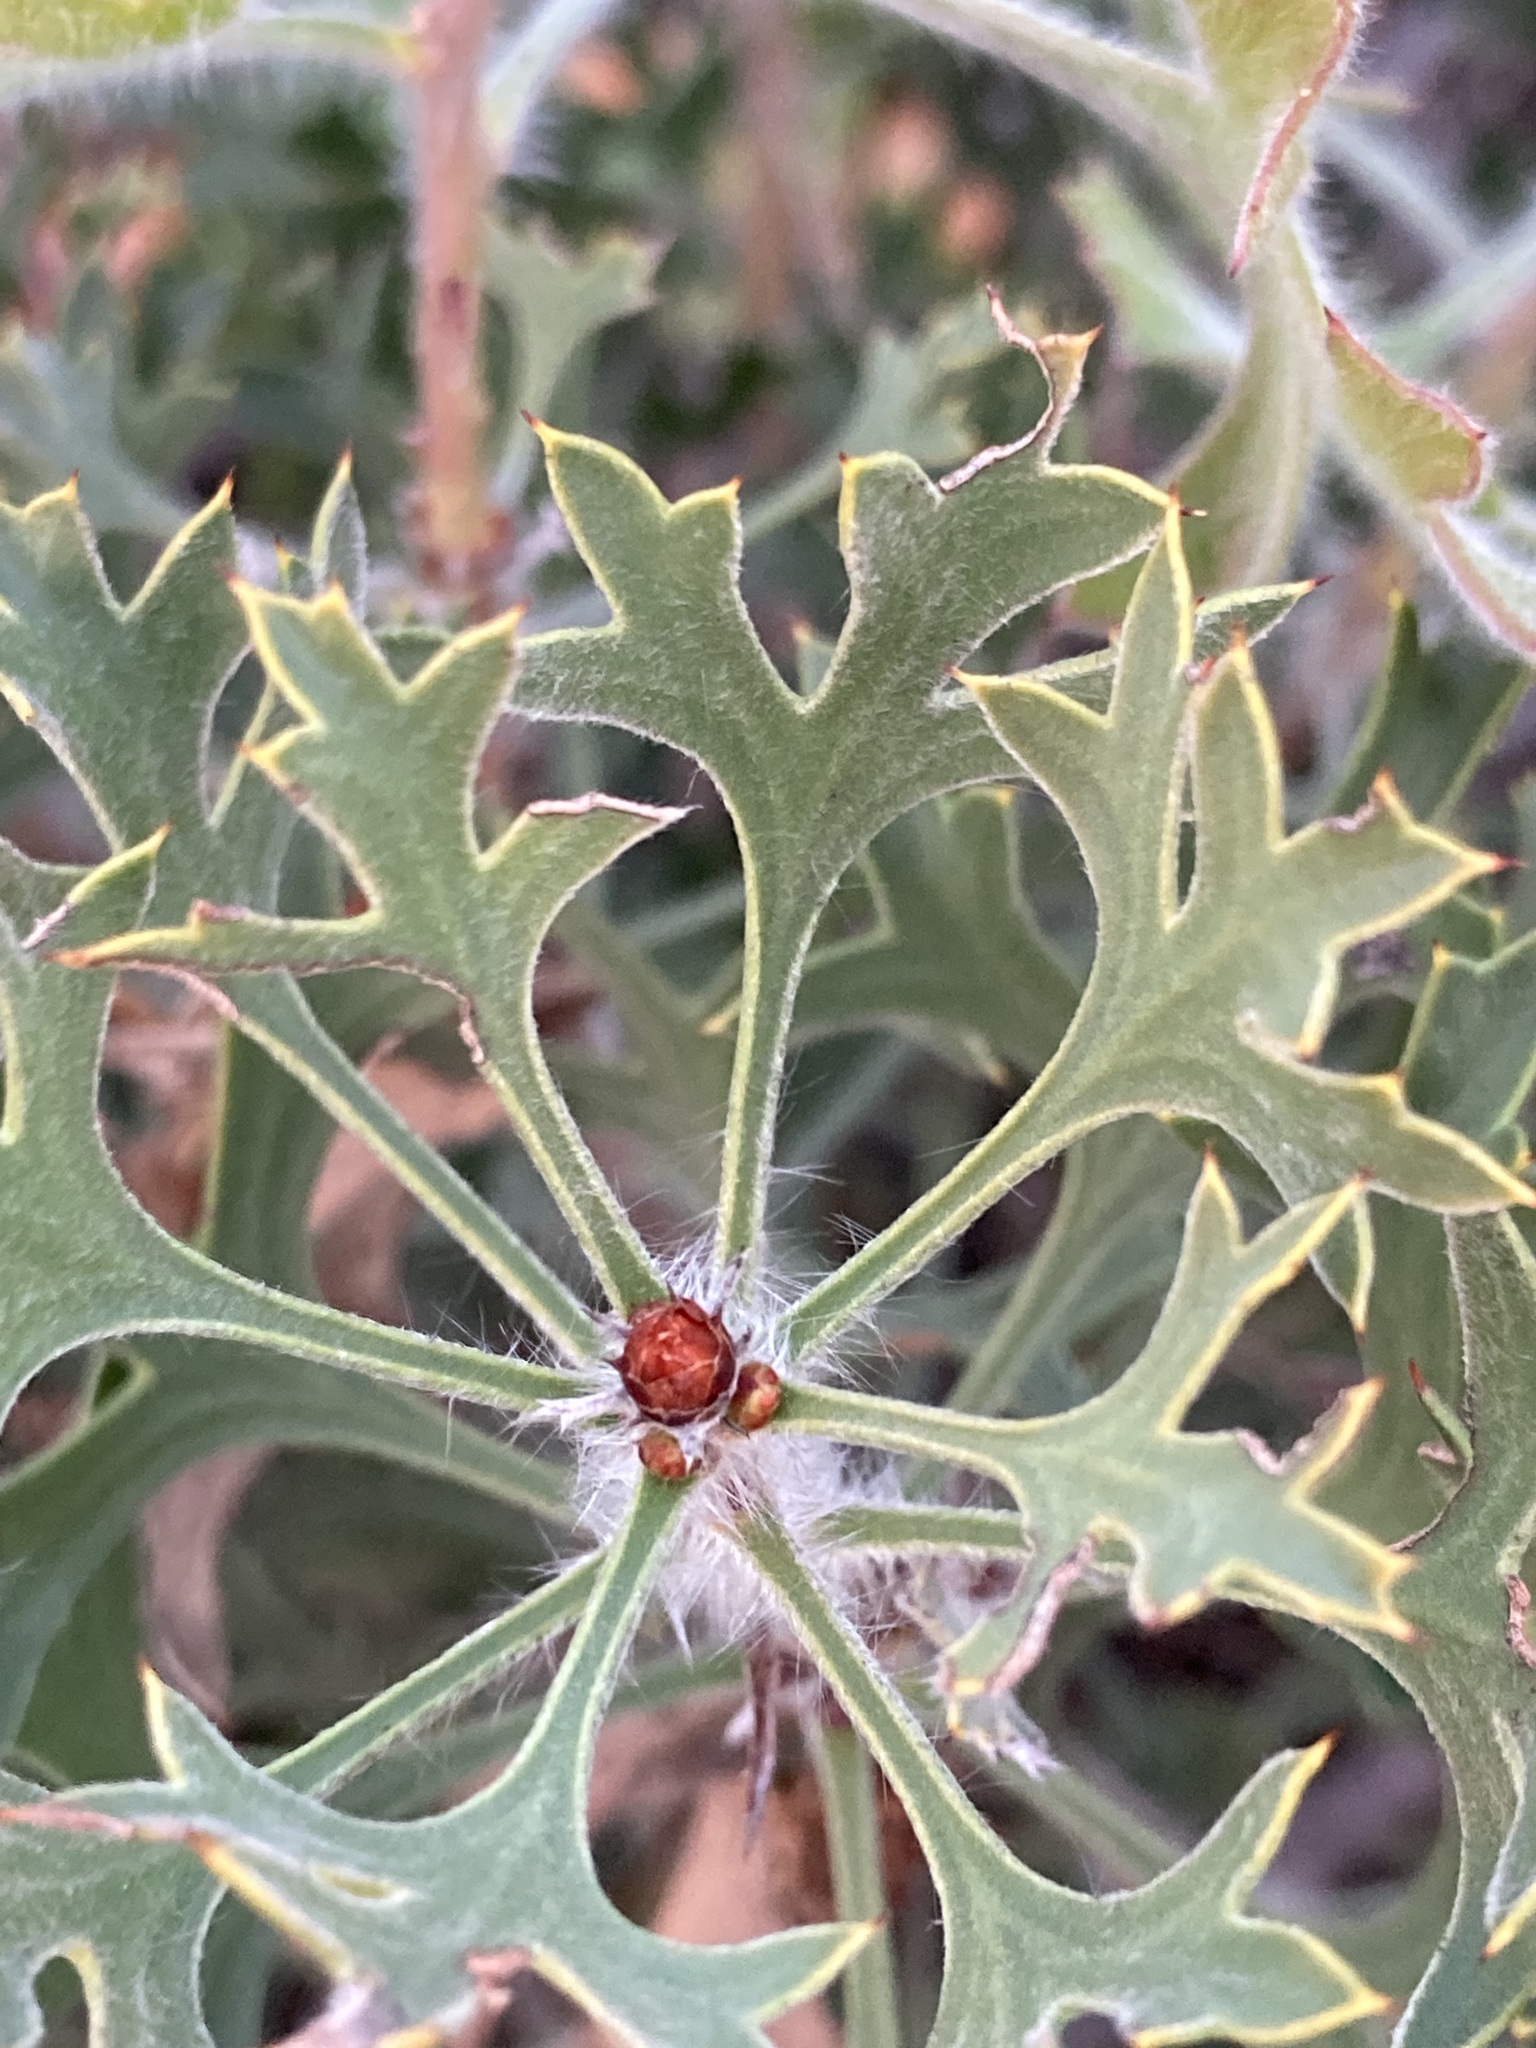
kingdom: Plantae
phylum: Tracheophyta
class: Magnoliopsida
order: Proteales
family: Proteaceae
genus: Petrophile
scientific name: Petrophile macrostachya
